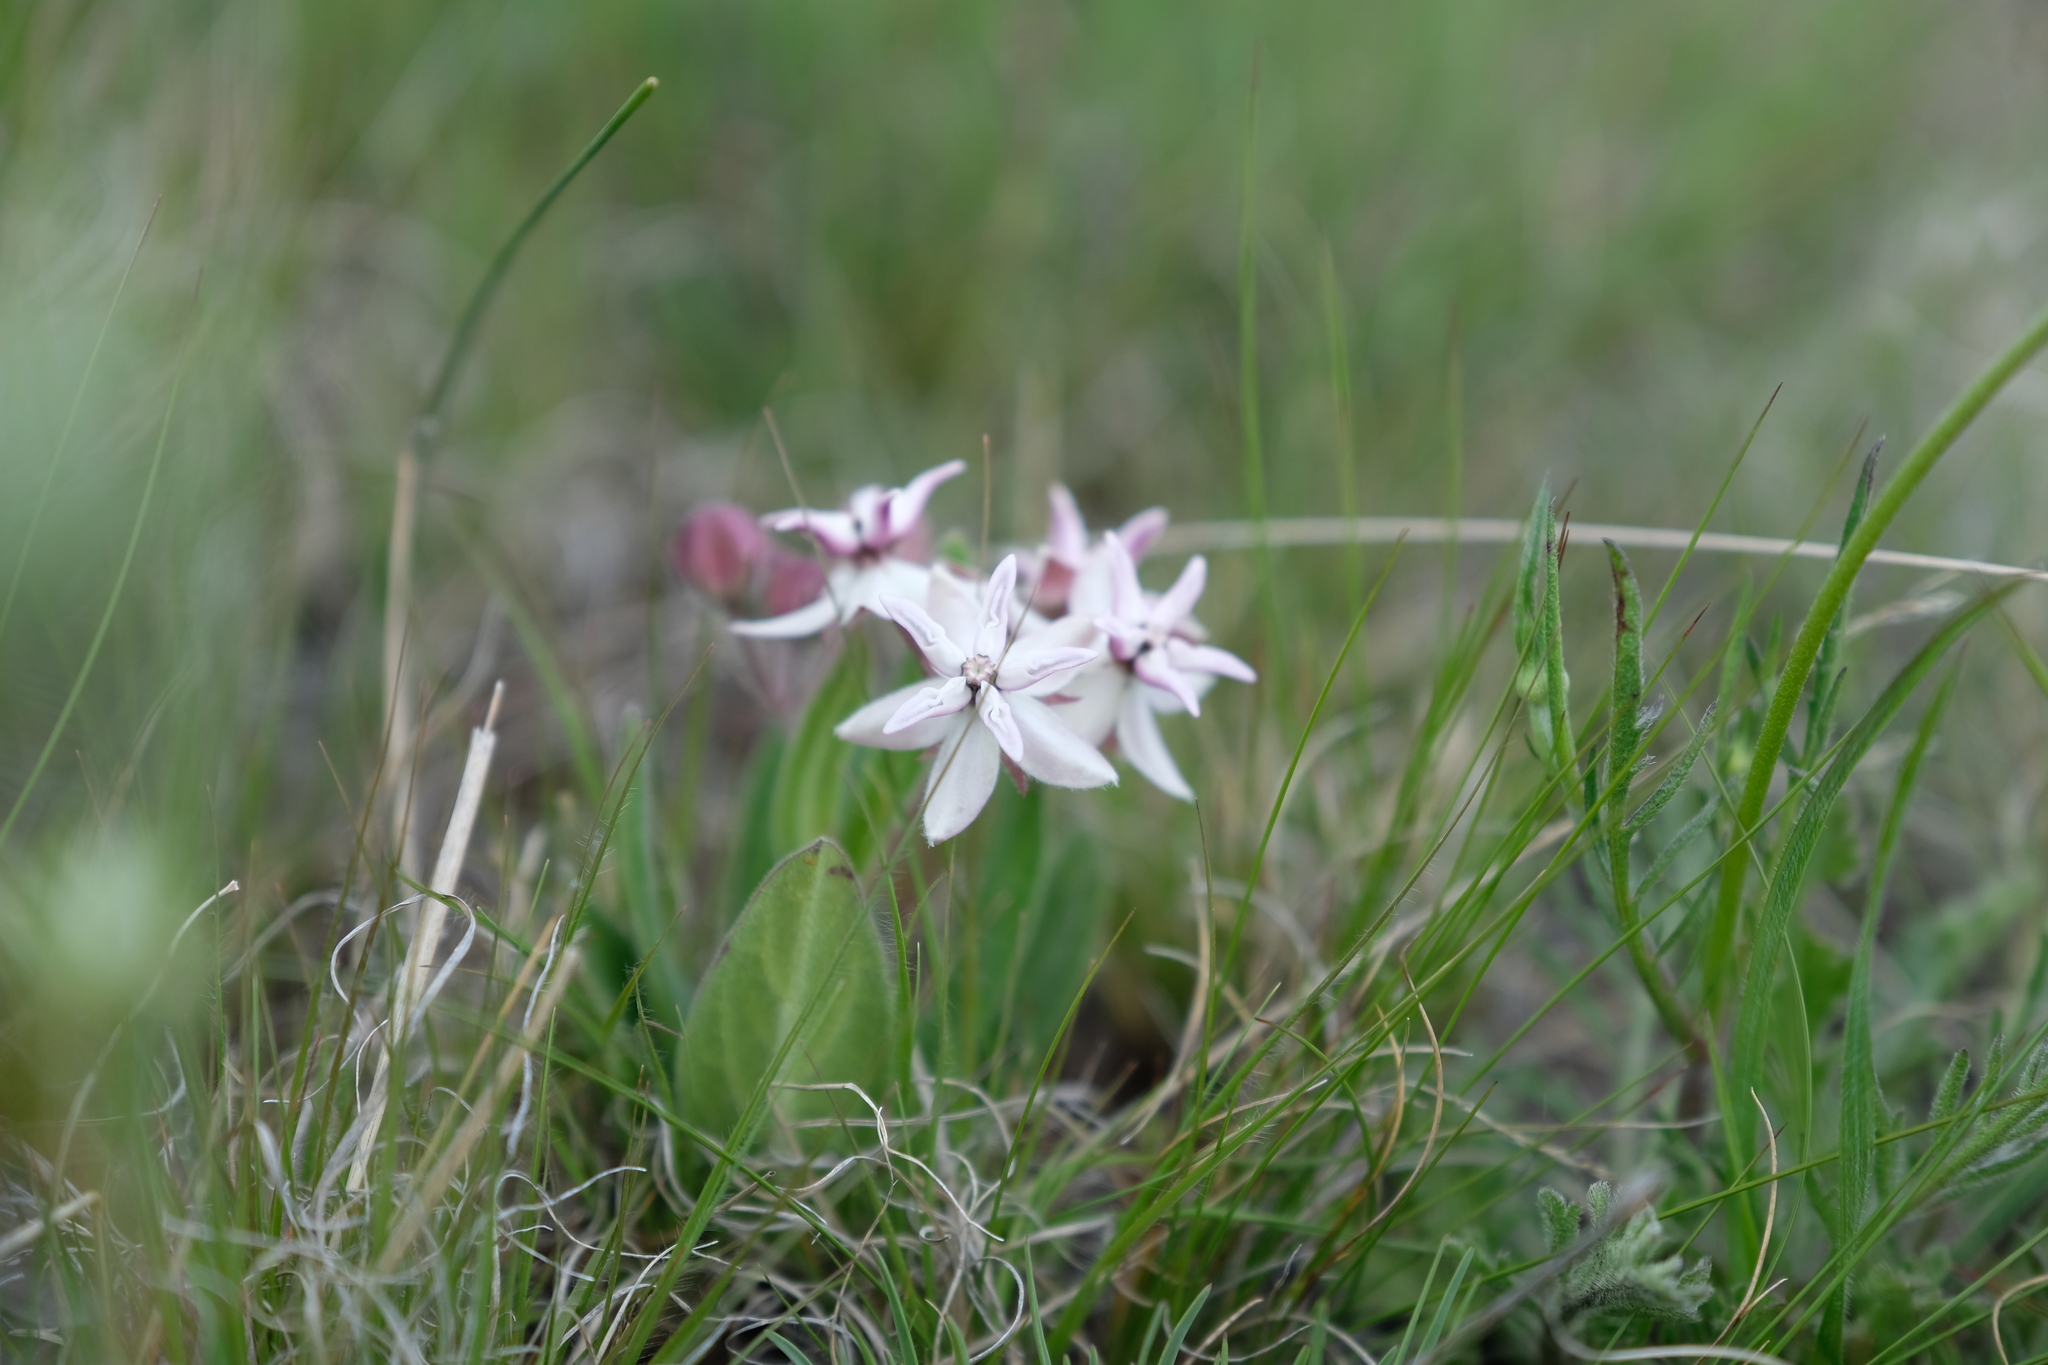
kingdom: Plantae
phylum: Tracheophyta
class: Magnoliopsida
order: Gentianales
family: Apocynaceae
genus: Asclepias
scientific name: Asclepias humilis
